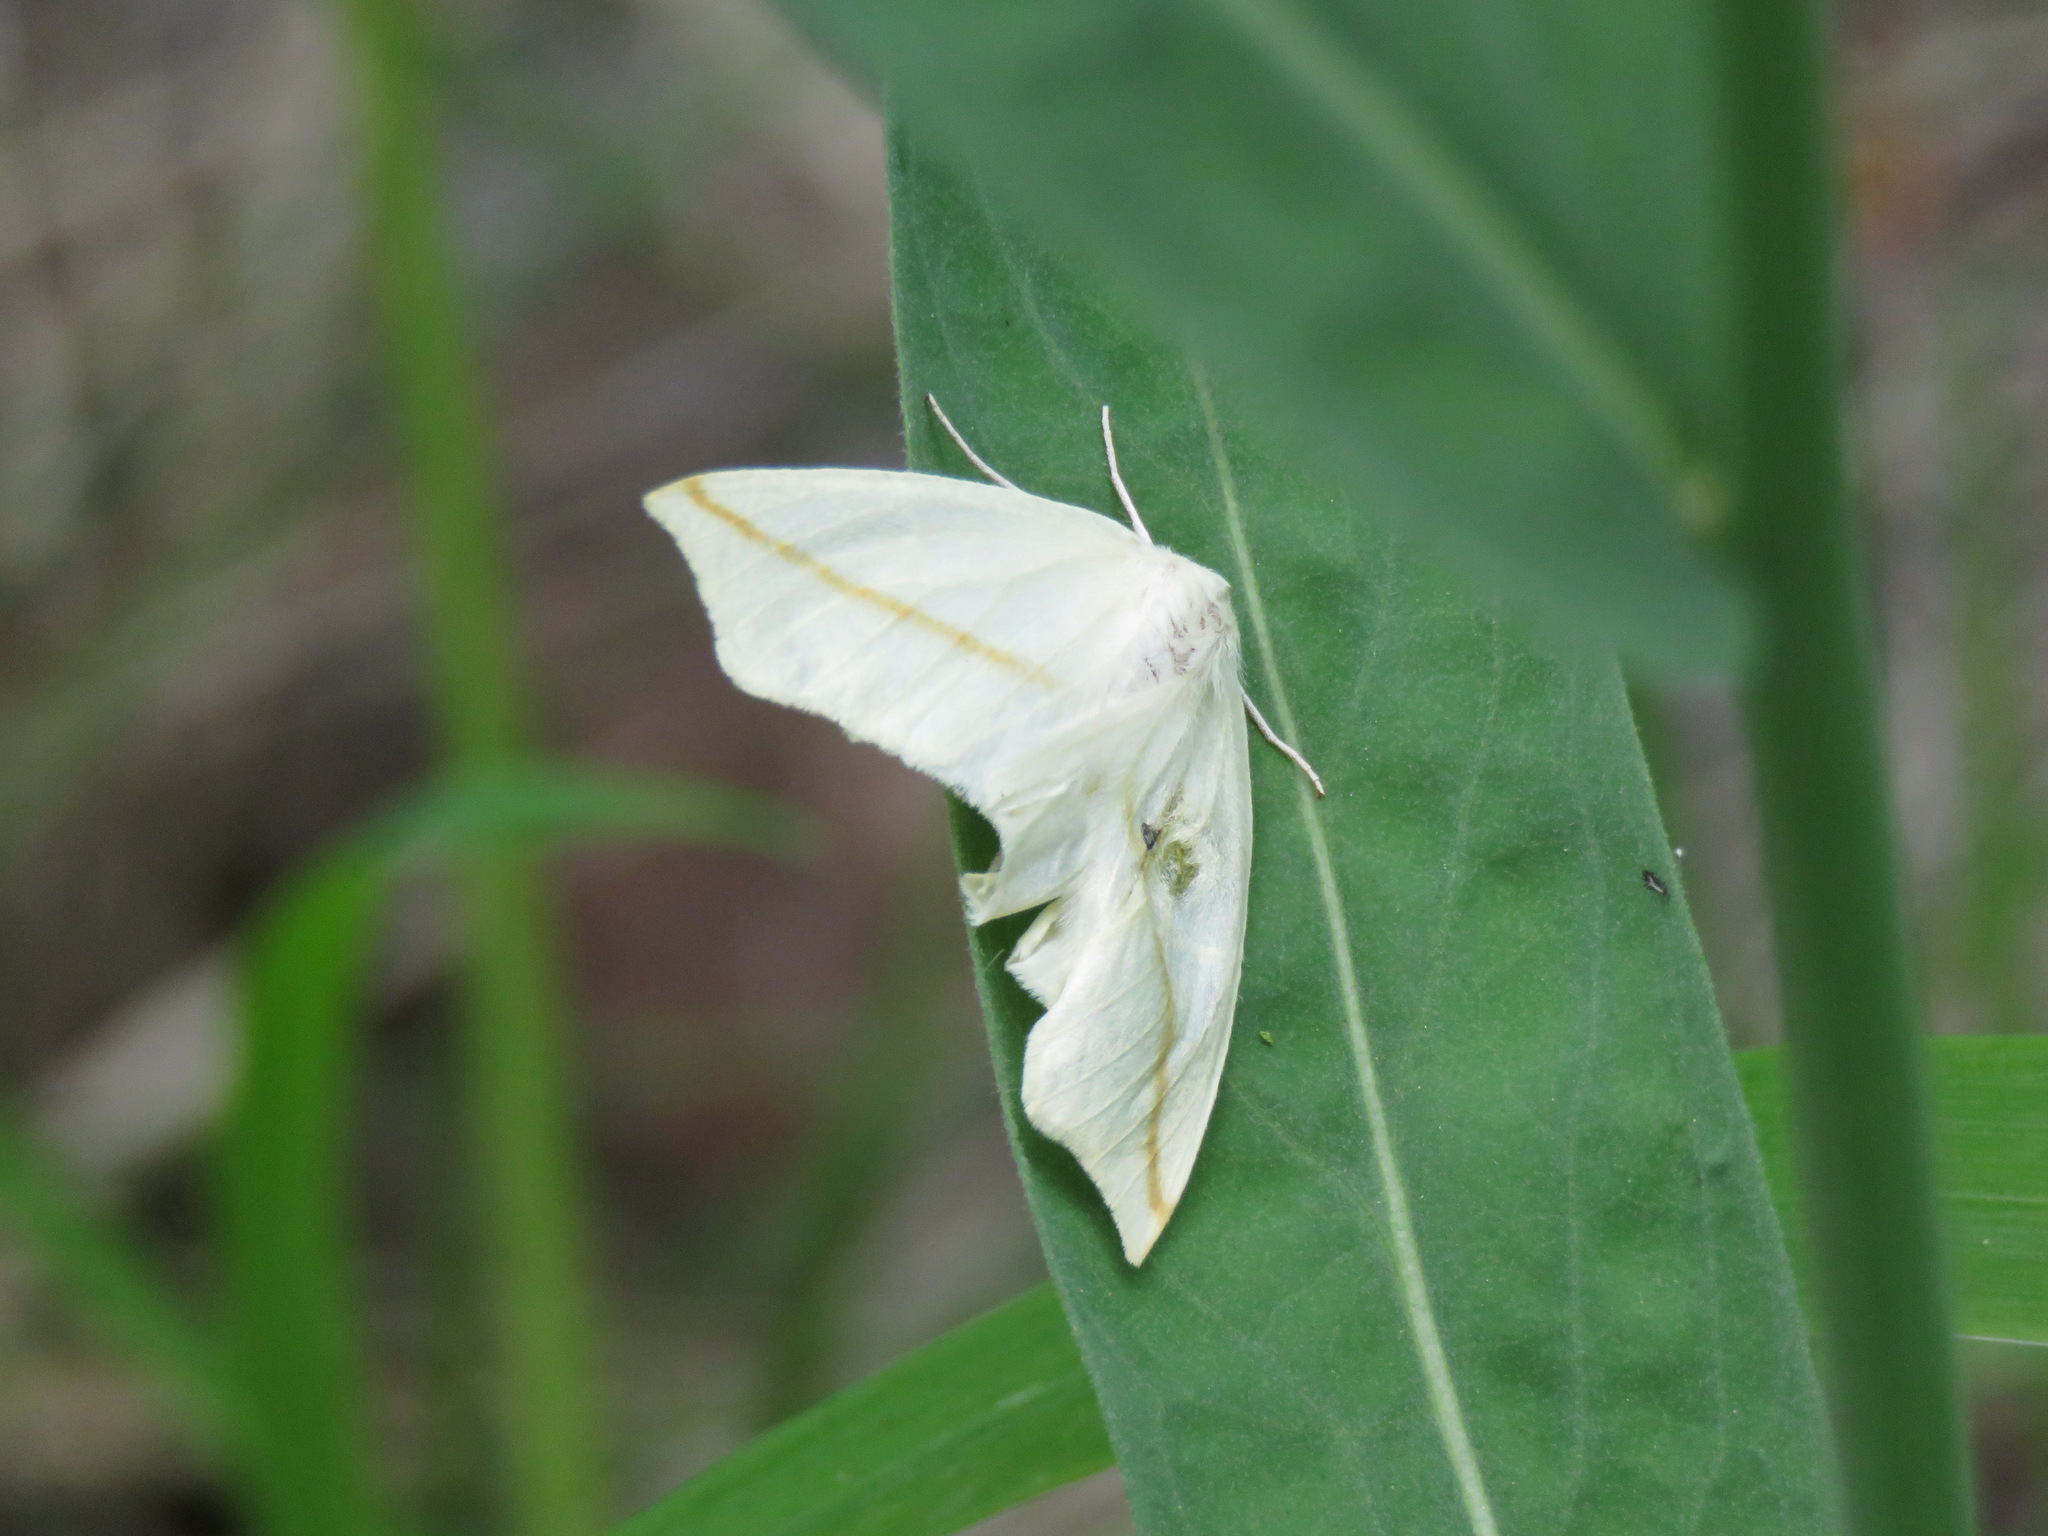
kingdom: Animalia
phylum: Arthropoda
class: Insecta
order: Lepidoptera
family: Geometridae
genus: Tetracis
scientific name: Tetracis cachexiata
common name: White slant-line
